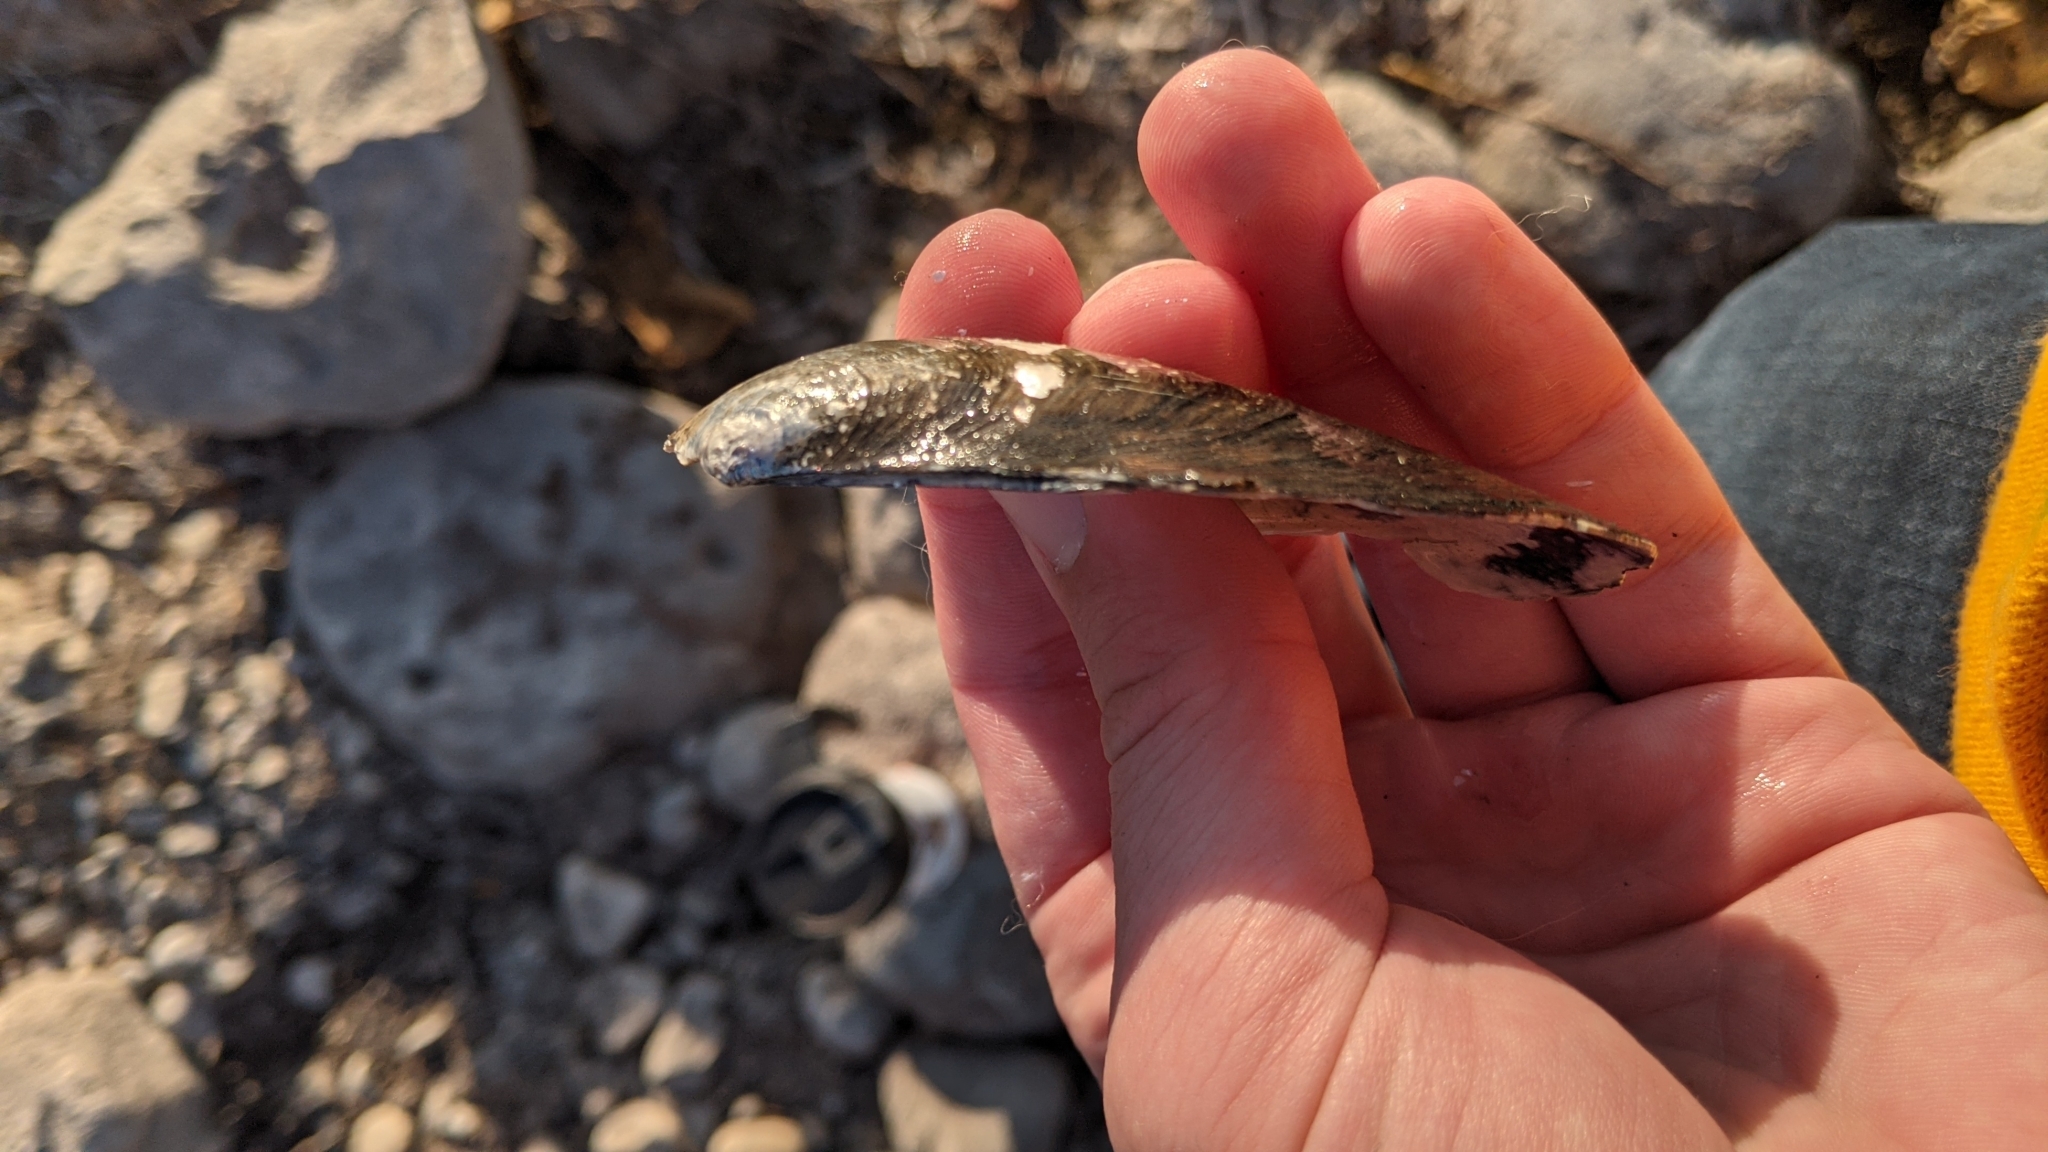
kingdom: Animalia
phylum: Mollusca
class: Bivalvia
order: Unionida
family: Unionidae
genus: Pyganodon
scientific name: Pyganodon grandis
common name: Giant floater
